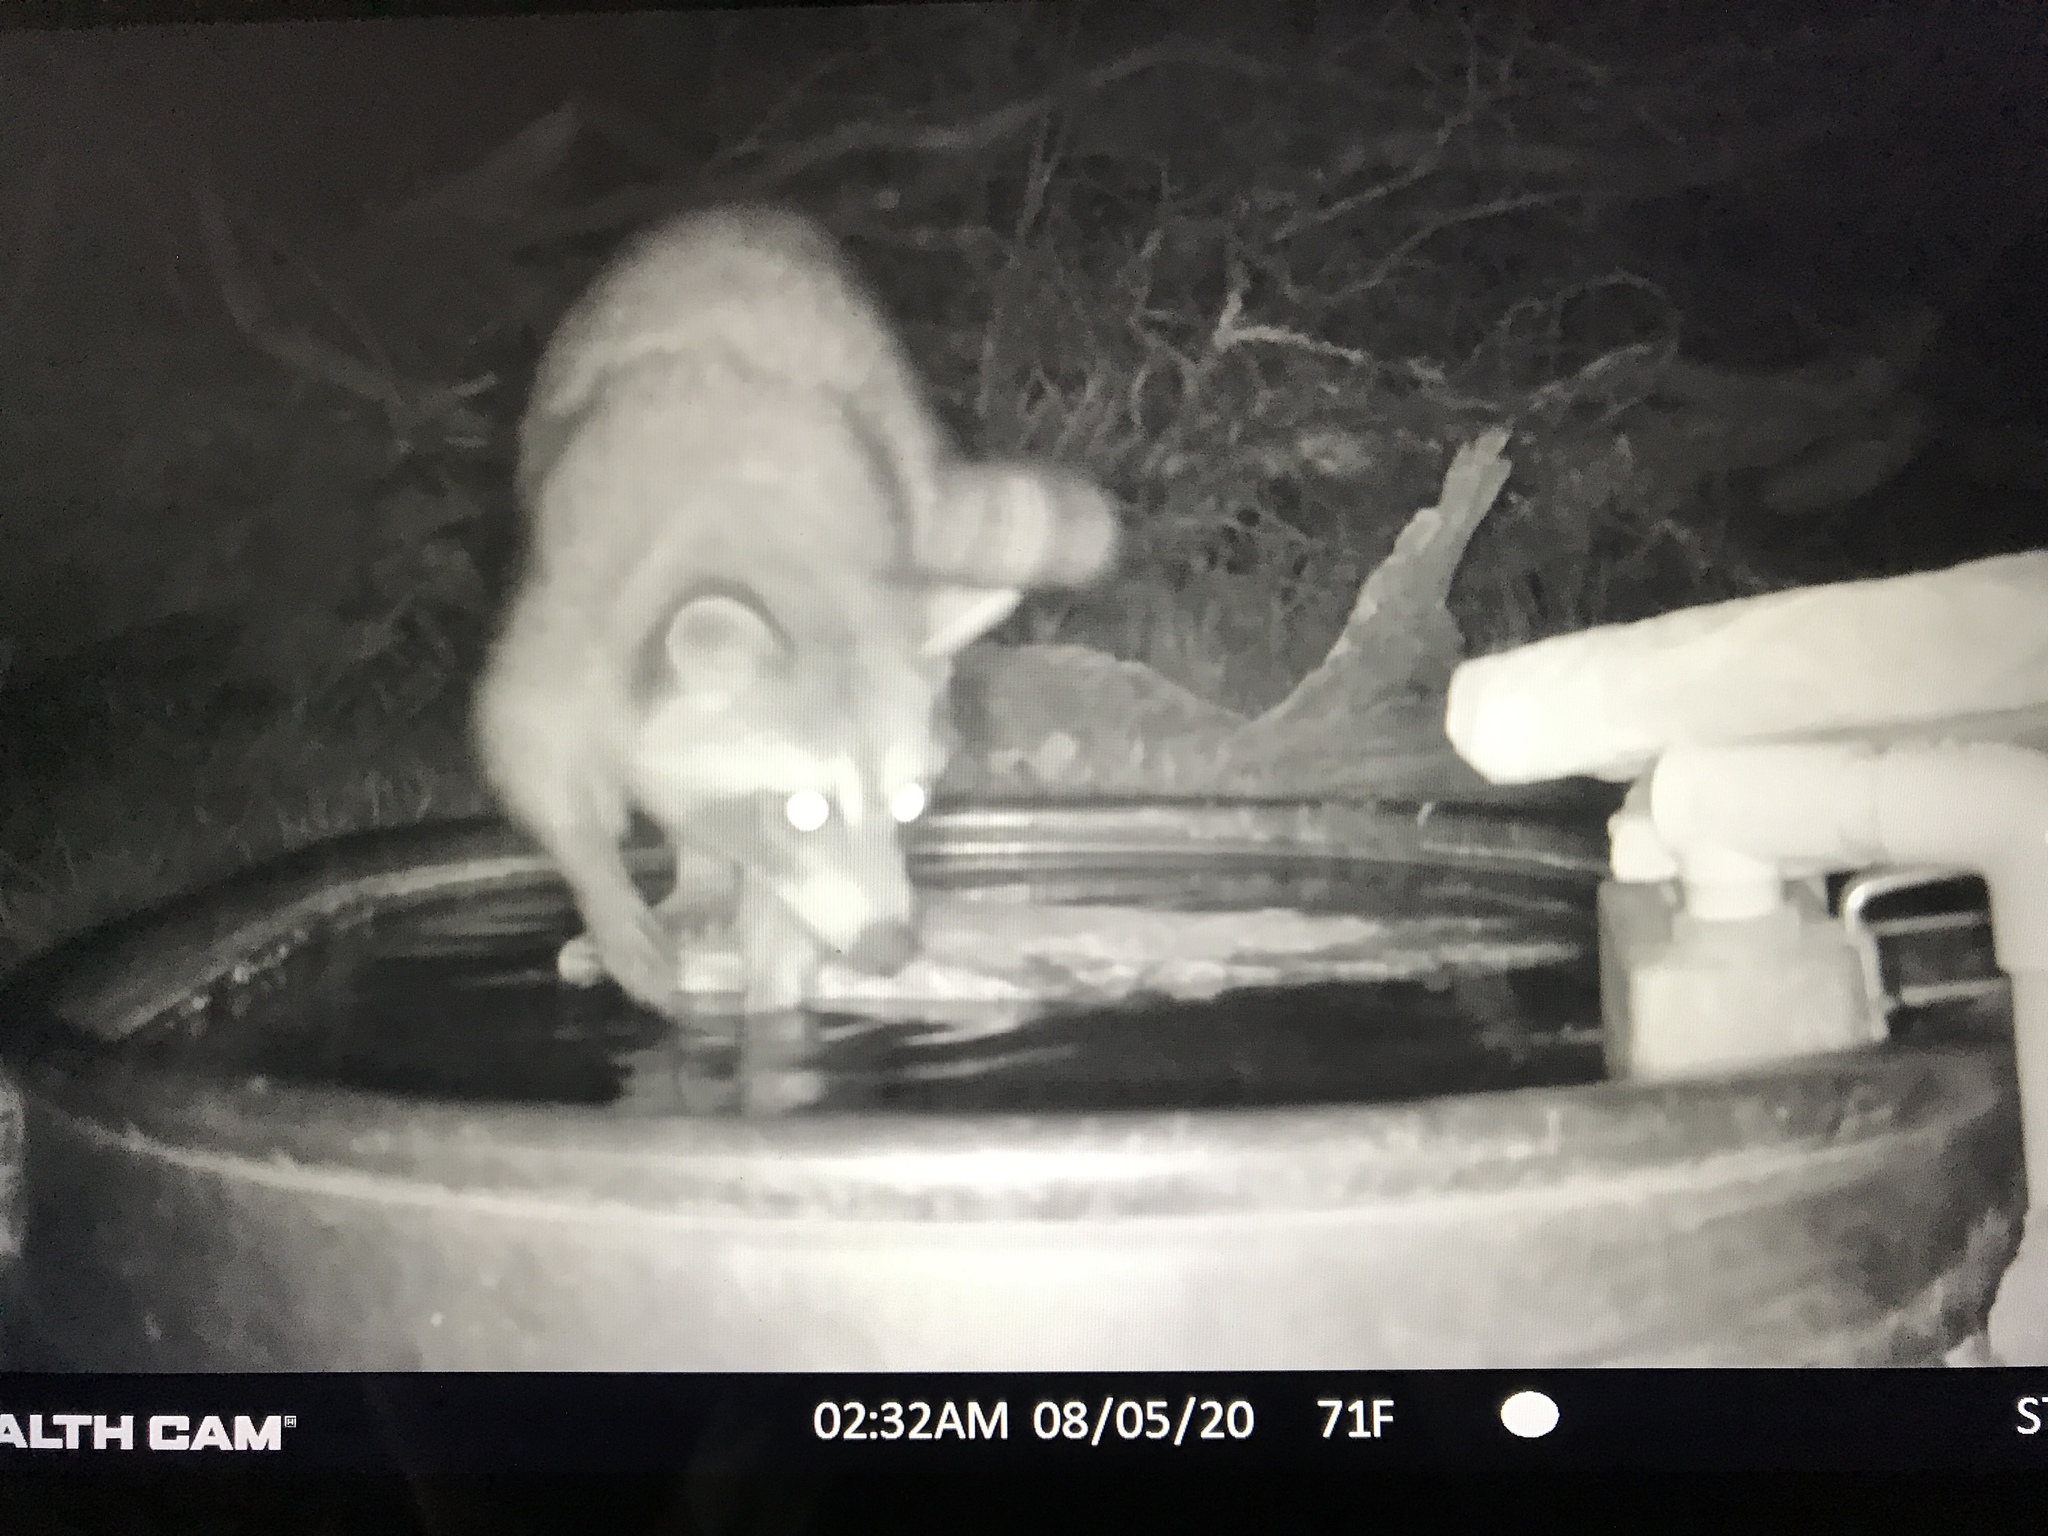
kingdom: Animalia
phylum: Chordata
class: Mammalia
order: Carnivora
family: Procyonidae
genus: Procyon
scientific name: Procyon lotor
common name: Raccoon
